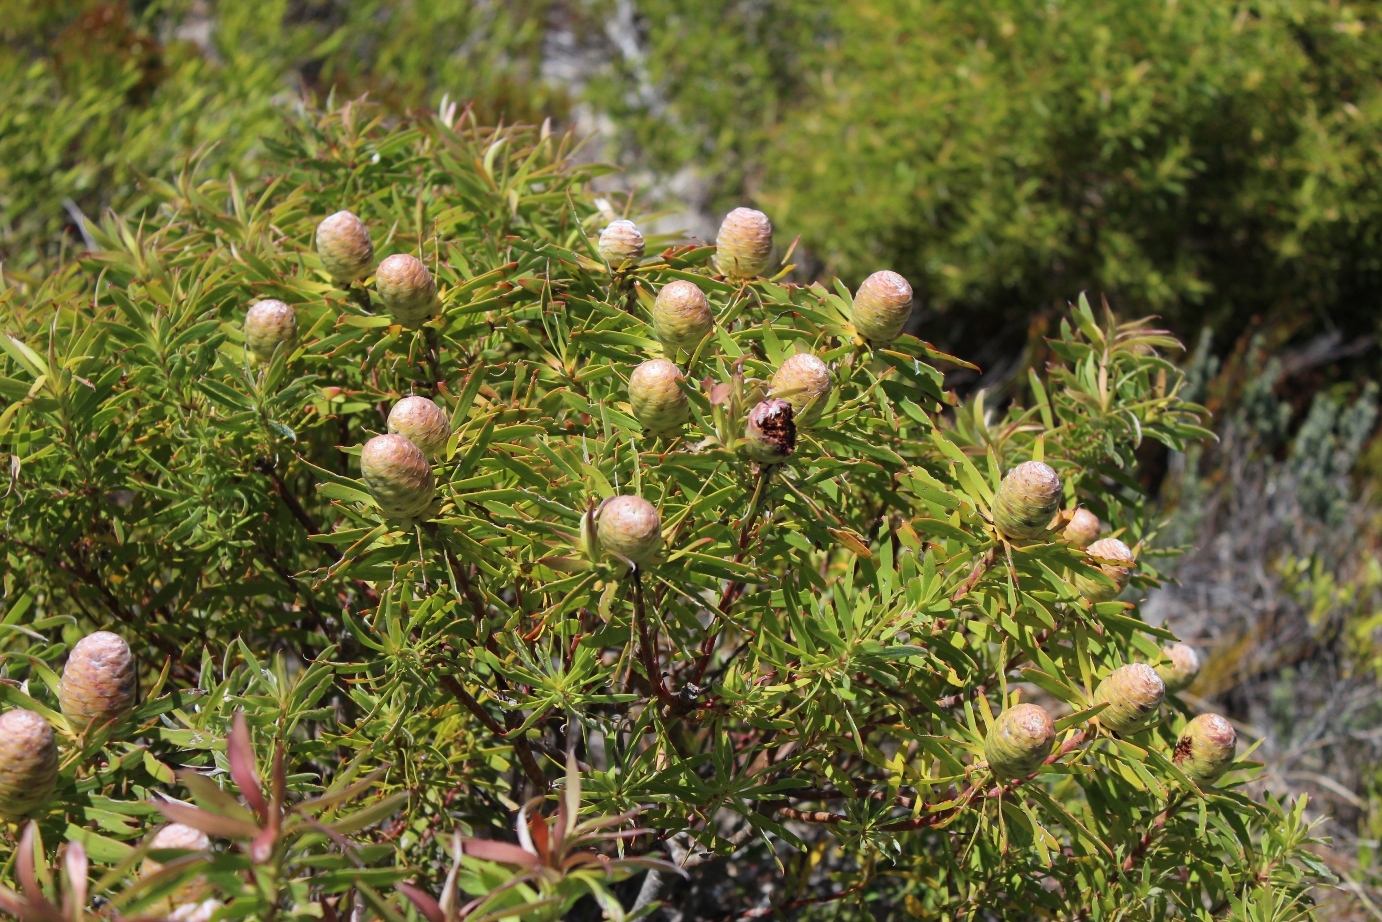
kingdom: Plantae
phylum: Tracheophyta
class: Magnoliopsida
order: Proteales
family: Proteaceae
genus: Leucadendron
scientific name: Leucadendron coniferum
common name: Dune conebush
